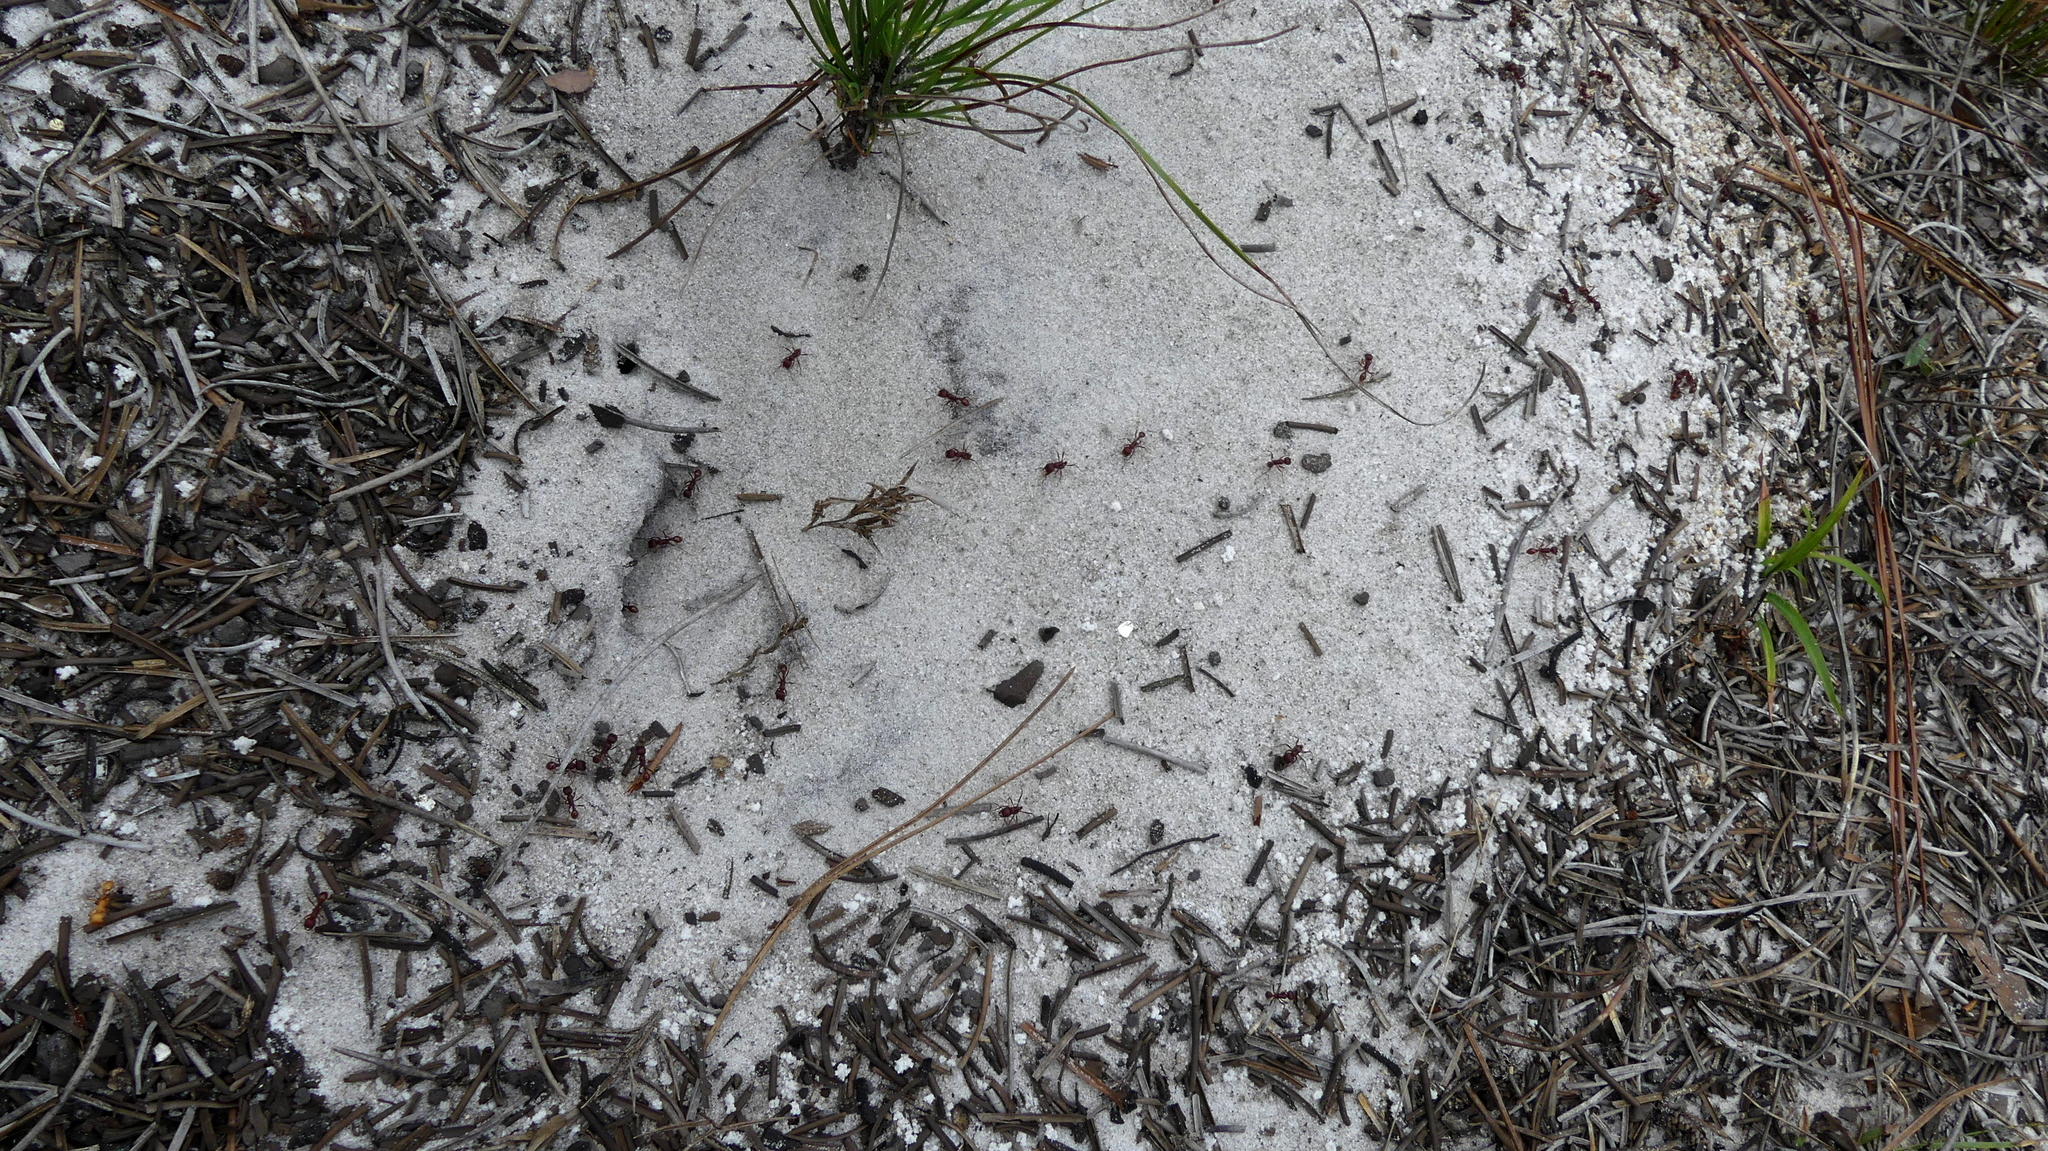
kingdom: Animalia
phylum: Arthropoda
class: Insecta
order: Hymenoptera
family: Formicidae
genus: Pogonomyrmex
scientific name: Pogonomyrmex badius
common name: Florida harvester ant
